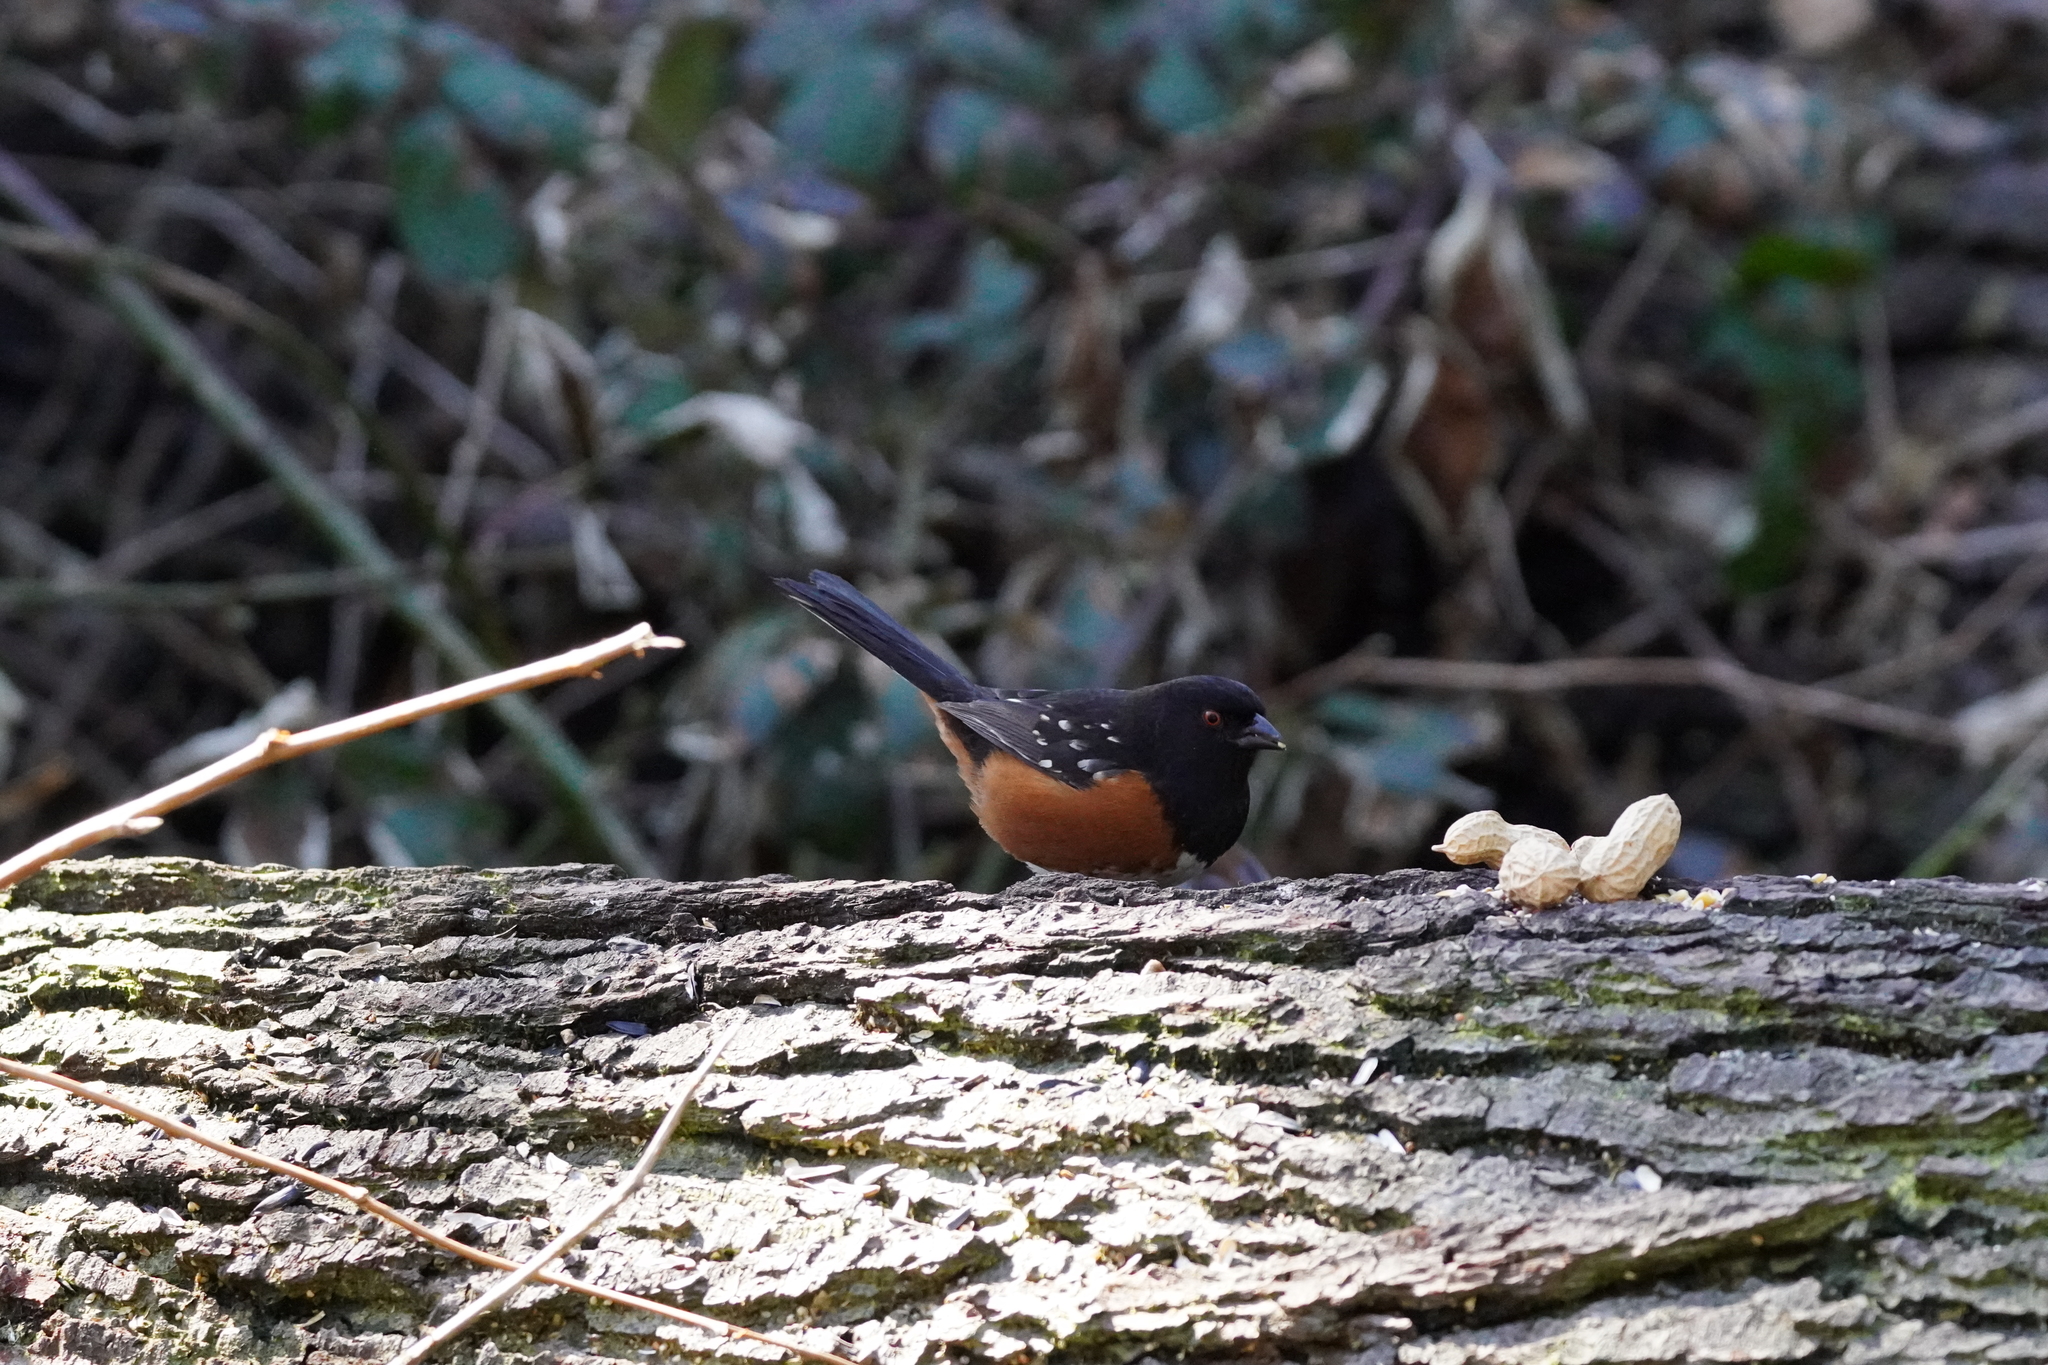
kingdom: Animalia
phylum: Chordata
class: Aves
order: Passeriformes
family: Passerellidae
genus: Pipilo
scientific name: Pipilo maculatus
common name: Spotted towhee
